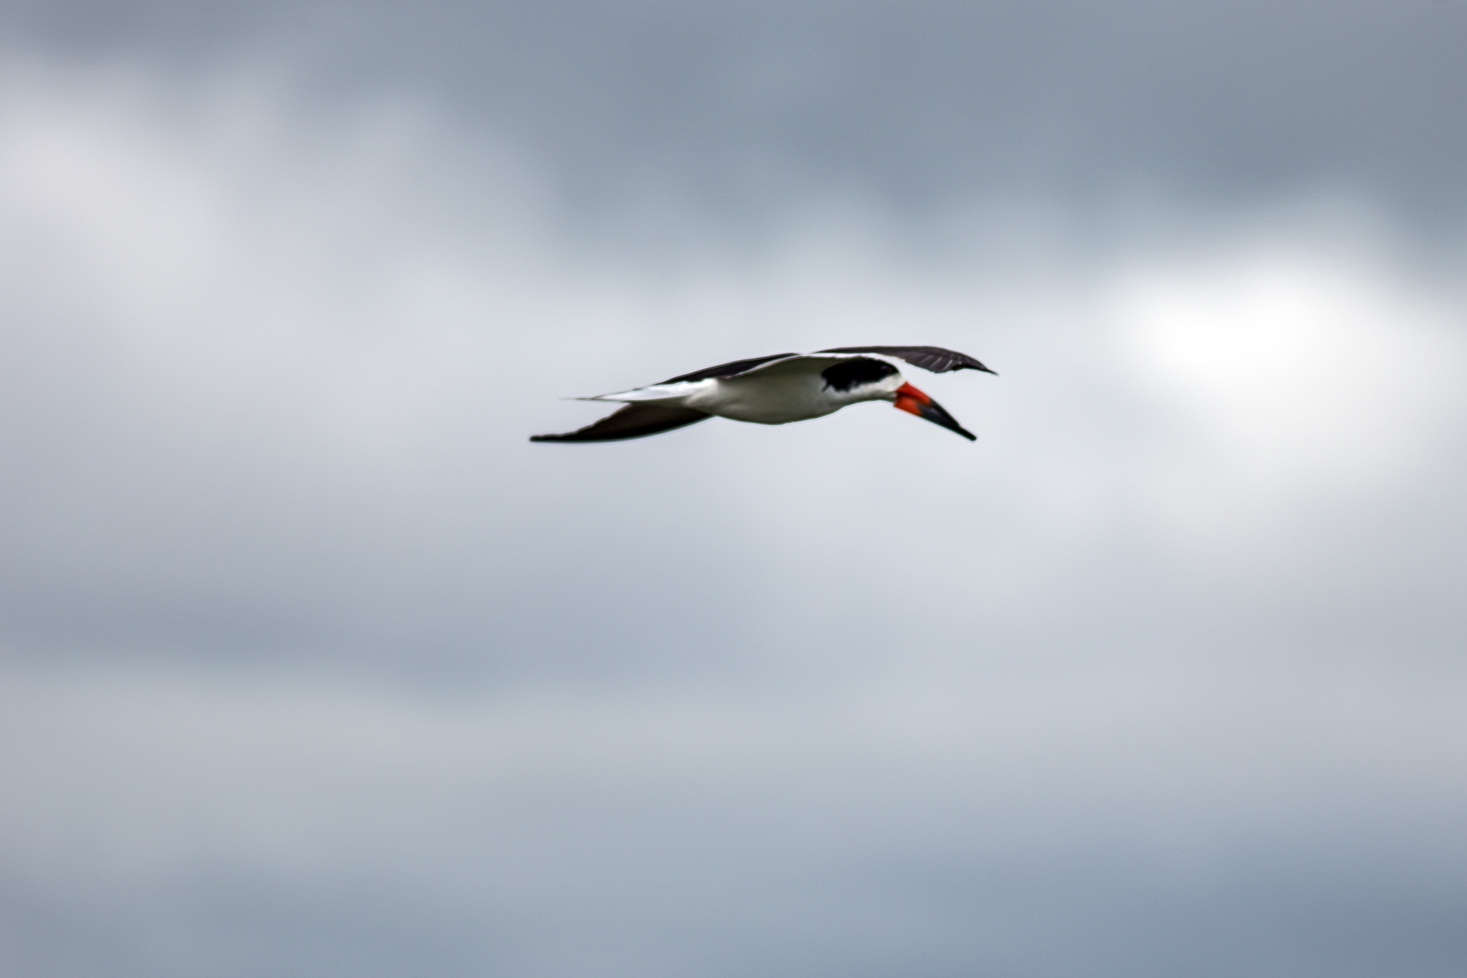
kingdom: Animalia
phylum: Chordata
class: Aves
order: Charadriiformes
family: Laridae
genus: Rynchops
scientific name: Rynchops niger
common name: Black skimmer
